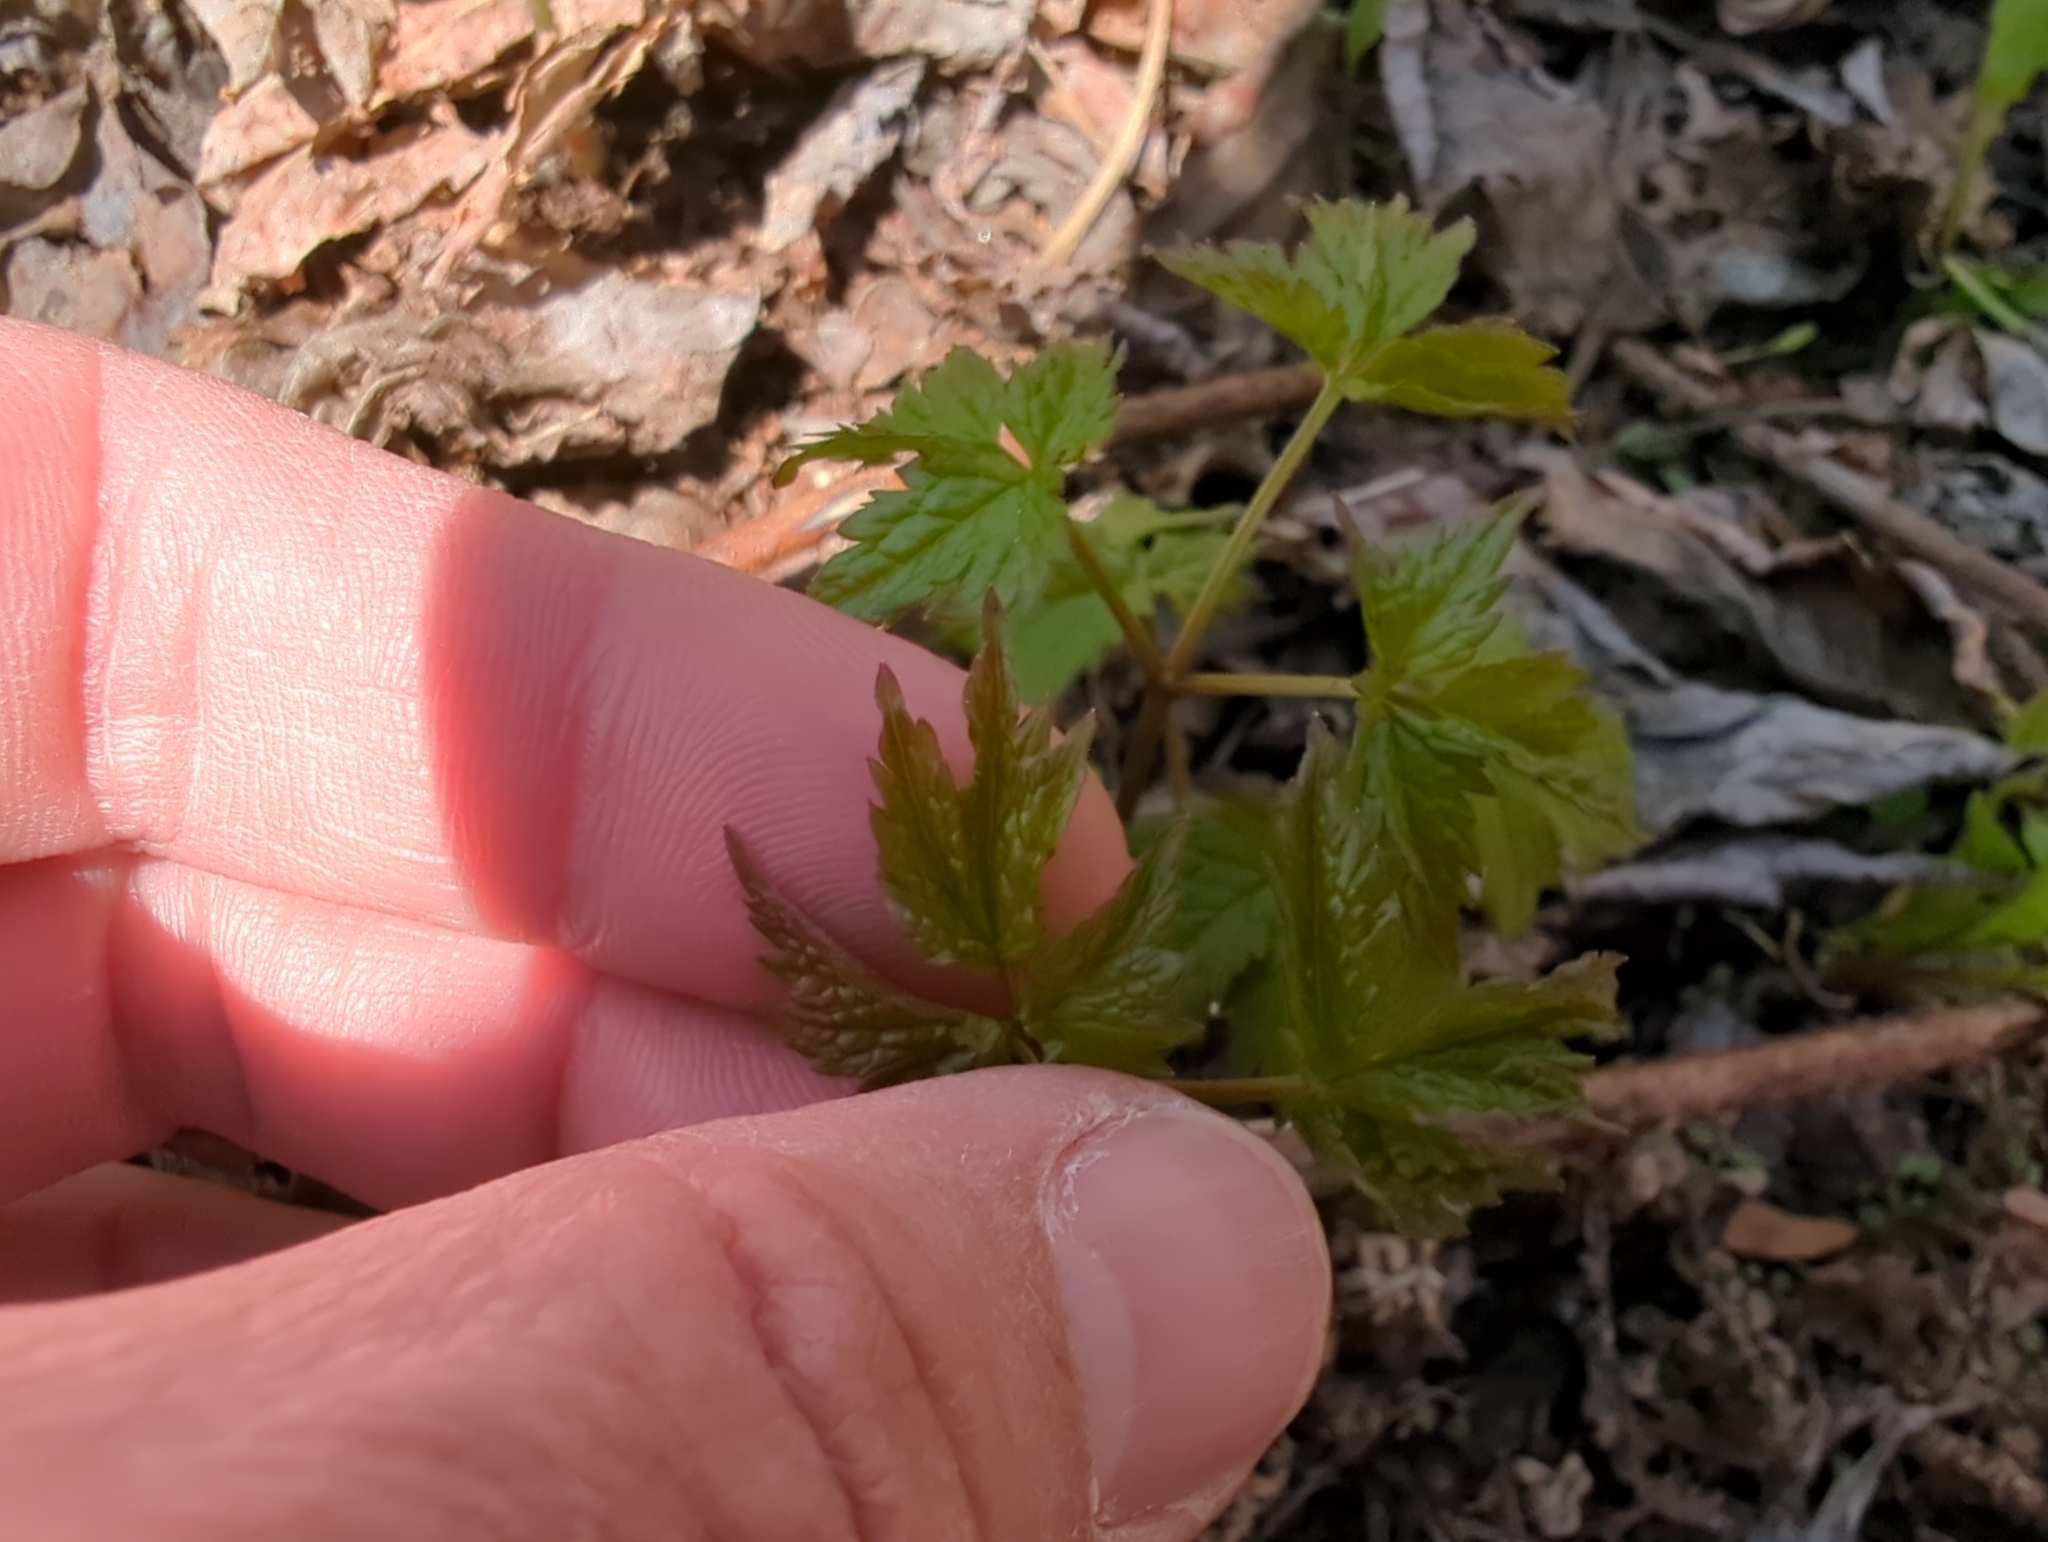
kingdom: Plantae
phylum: Tracheophyta
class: Magnoliopsida
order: Ranunculales
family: Ranunculaceae
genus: Actaea
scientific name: Actaea rubra
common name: Red baneberry
